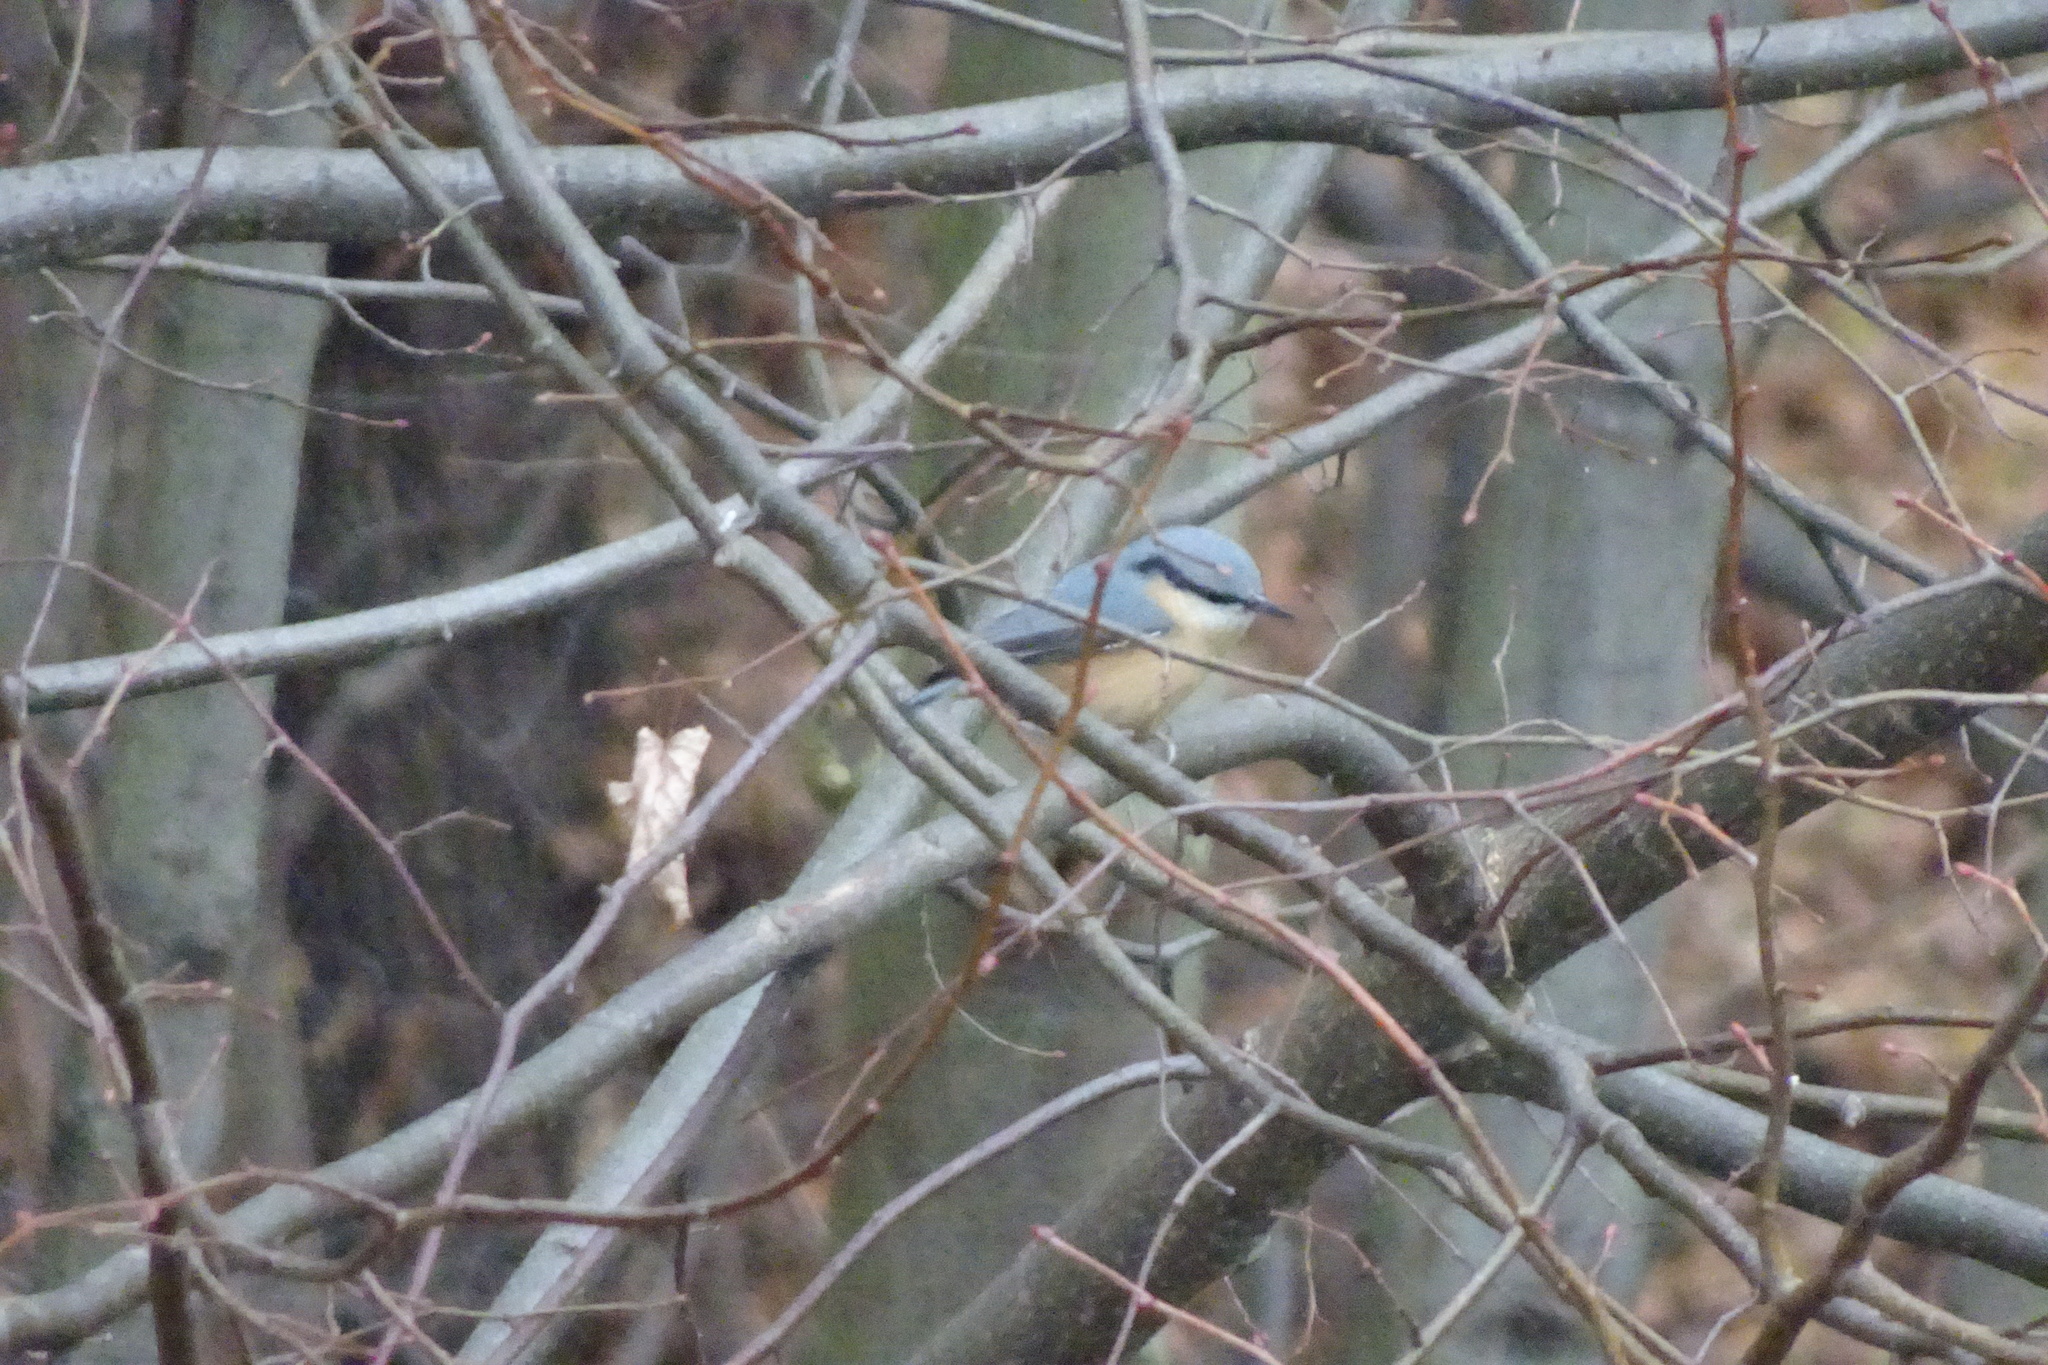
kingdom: Animalia
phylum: Chordata
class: Aves
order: Passeriformes
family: Sittidae
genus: Sitta
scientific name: Sitta europaea
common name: Eurasian nuthatch
